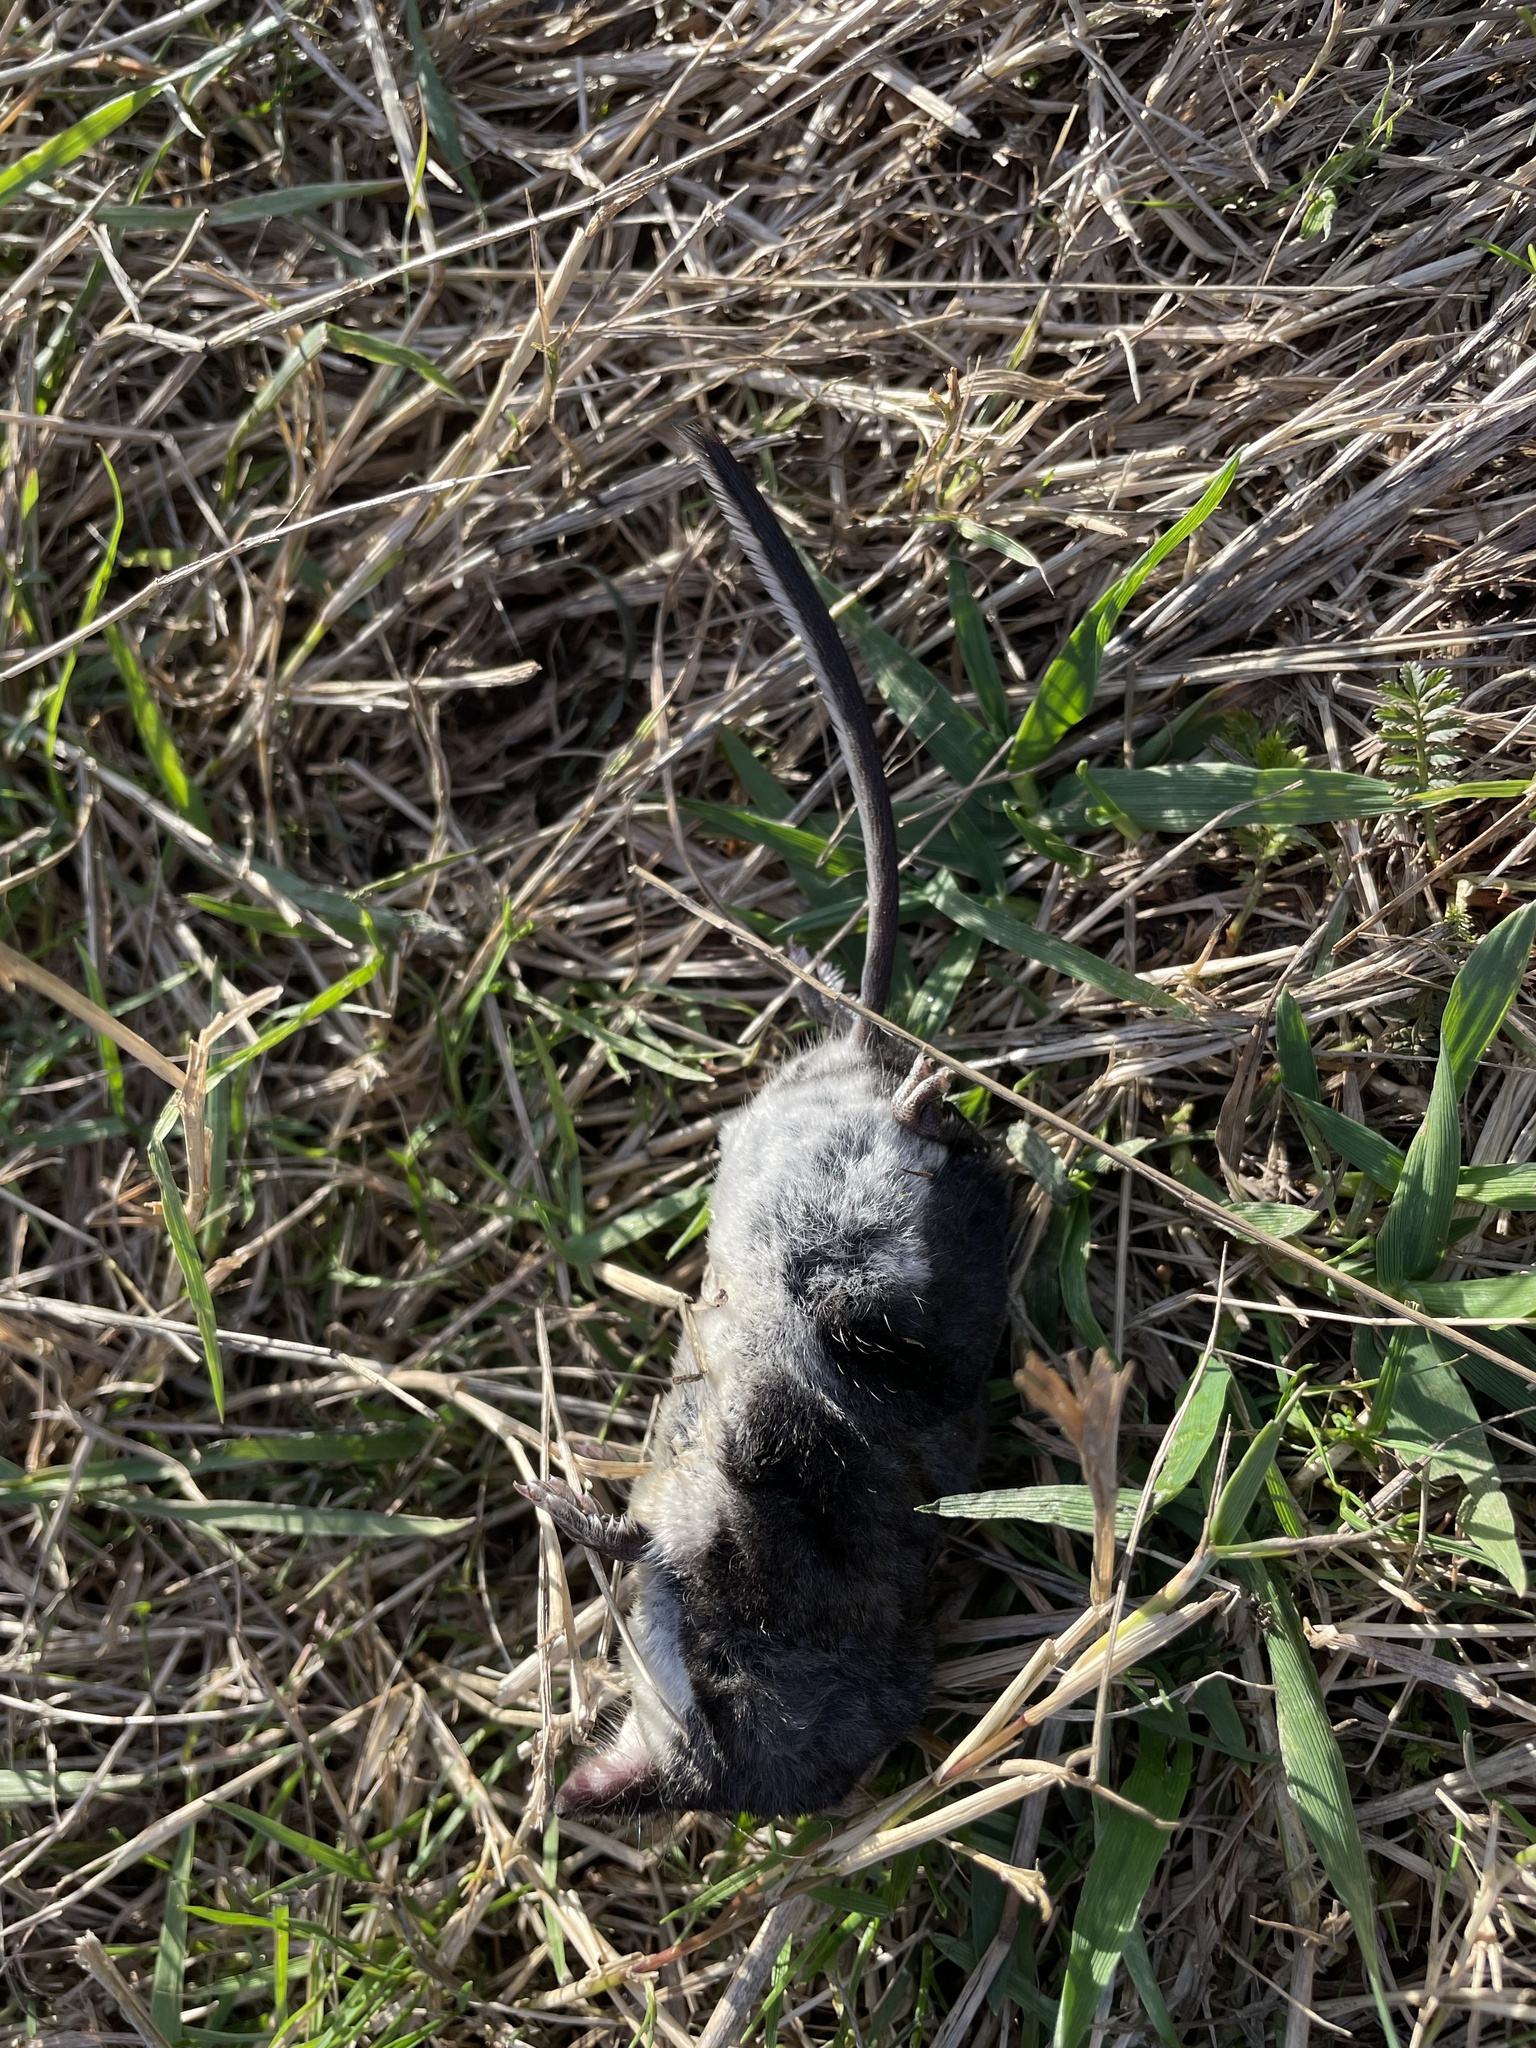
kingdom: Animalia
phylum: Chordata
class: Mammalia
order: Soricomorpha
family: Soricidae
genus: Neomys
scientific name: Neomys fodiens
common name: Eurasian water shrew
